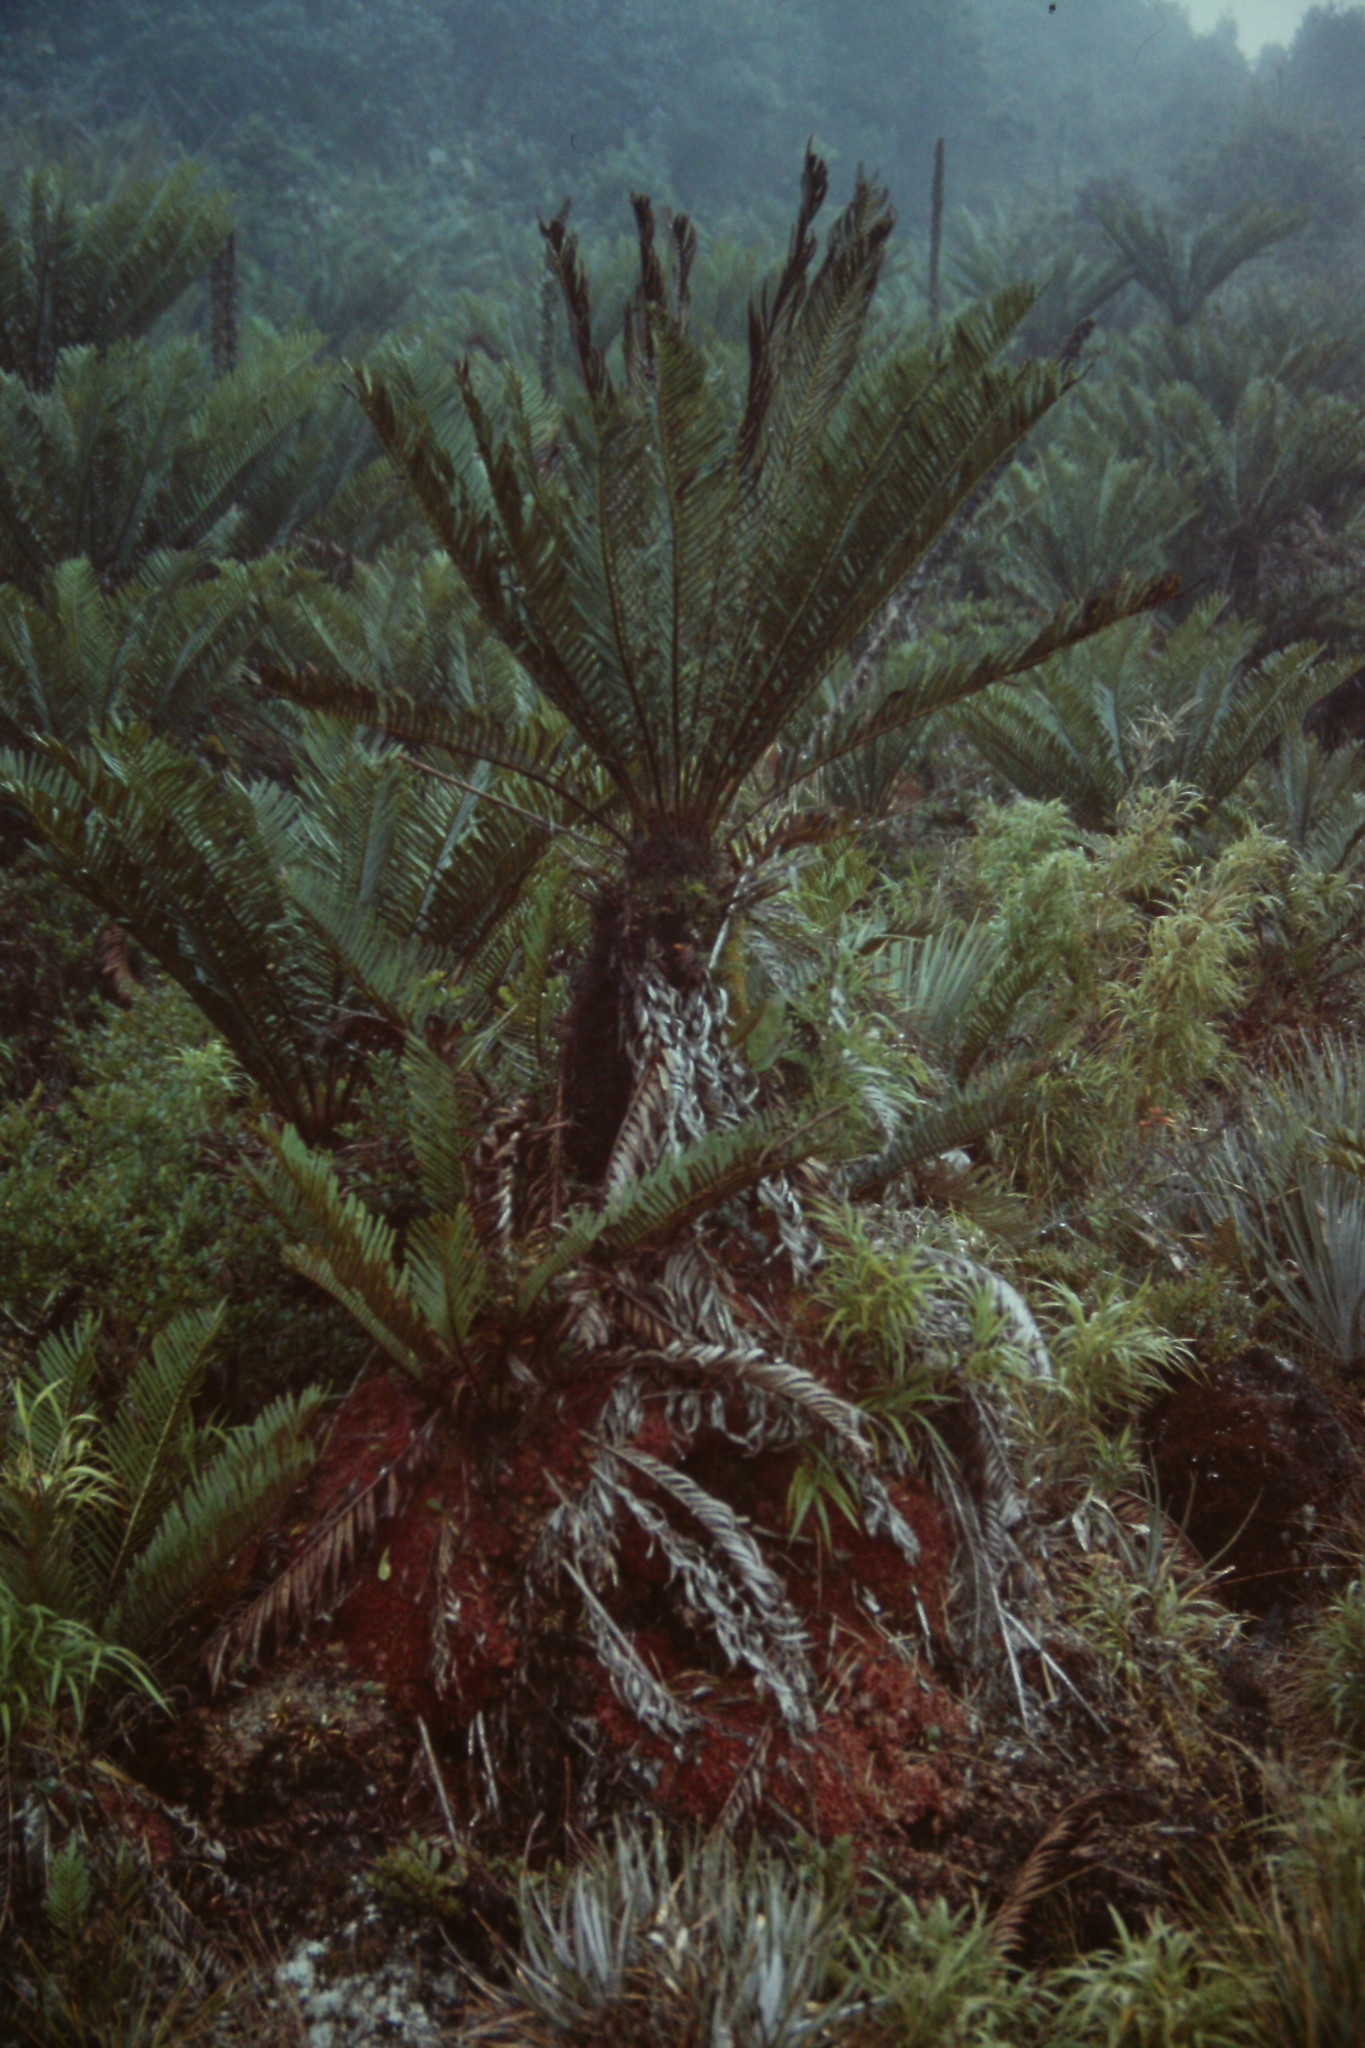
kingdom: Plantae
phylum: Tracheophyta
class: Polypodiopsida
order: Polypodiales
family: Blechnaceae
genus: Lomariocycas
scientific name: Lomariocycas aurata
